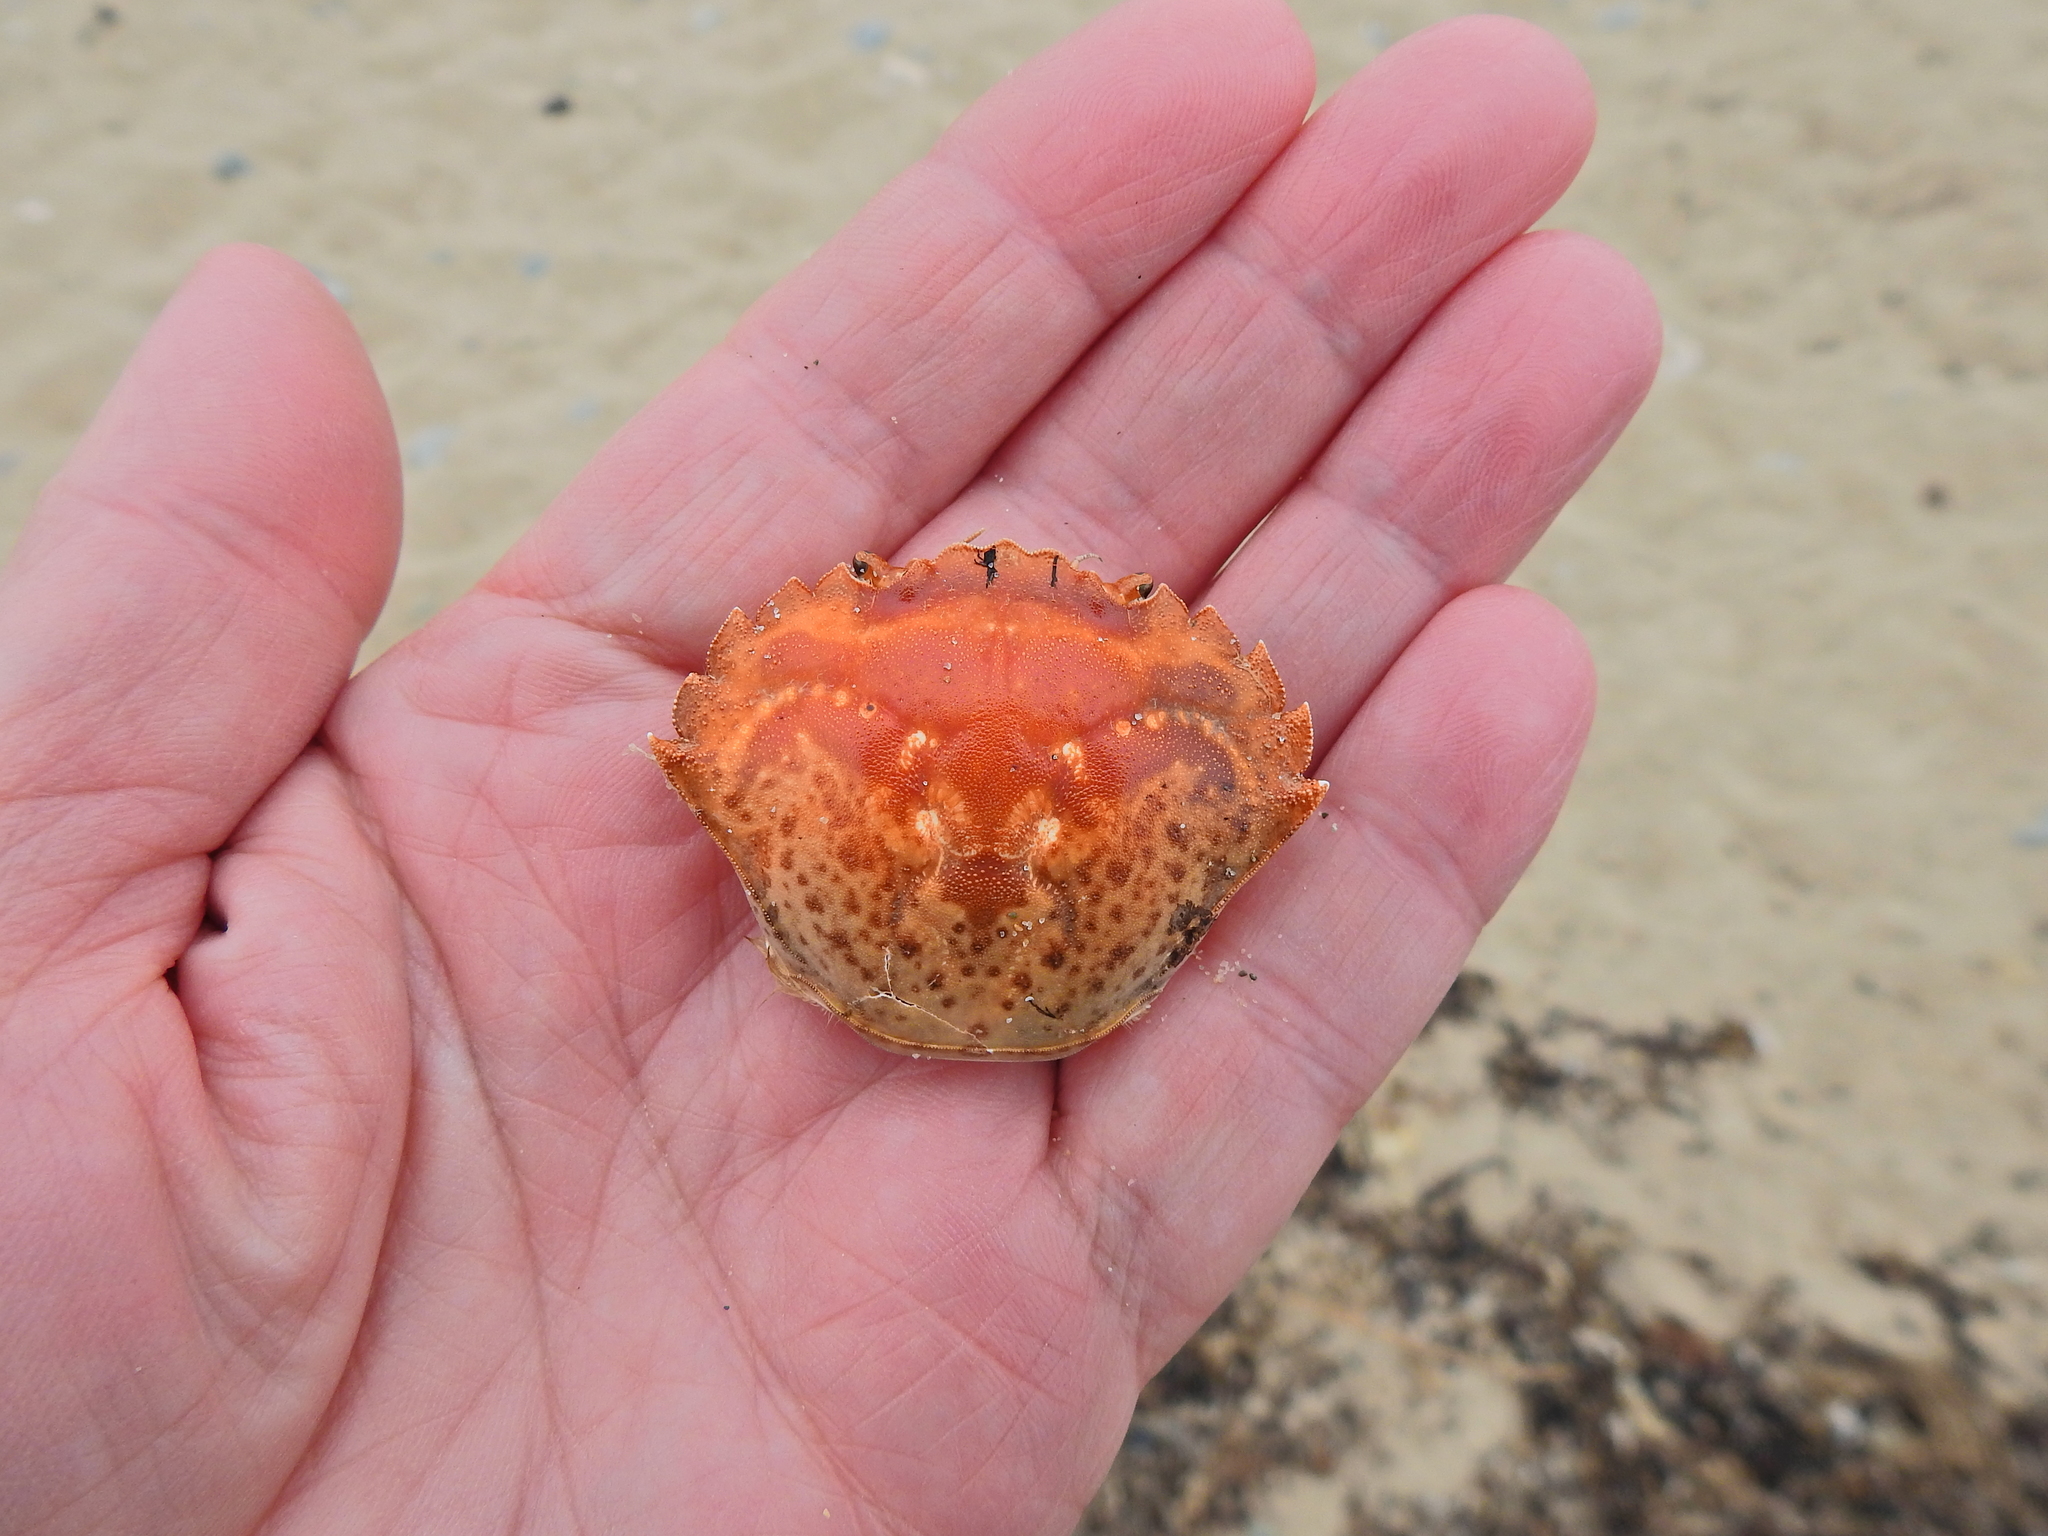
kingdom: Animalia
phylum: Arthropoda
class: Malacostraca
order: Decapoda
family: Carcinidae
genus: Carcinus
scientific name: Carcinus maenas
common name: European green crab
